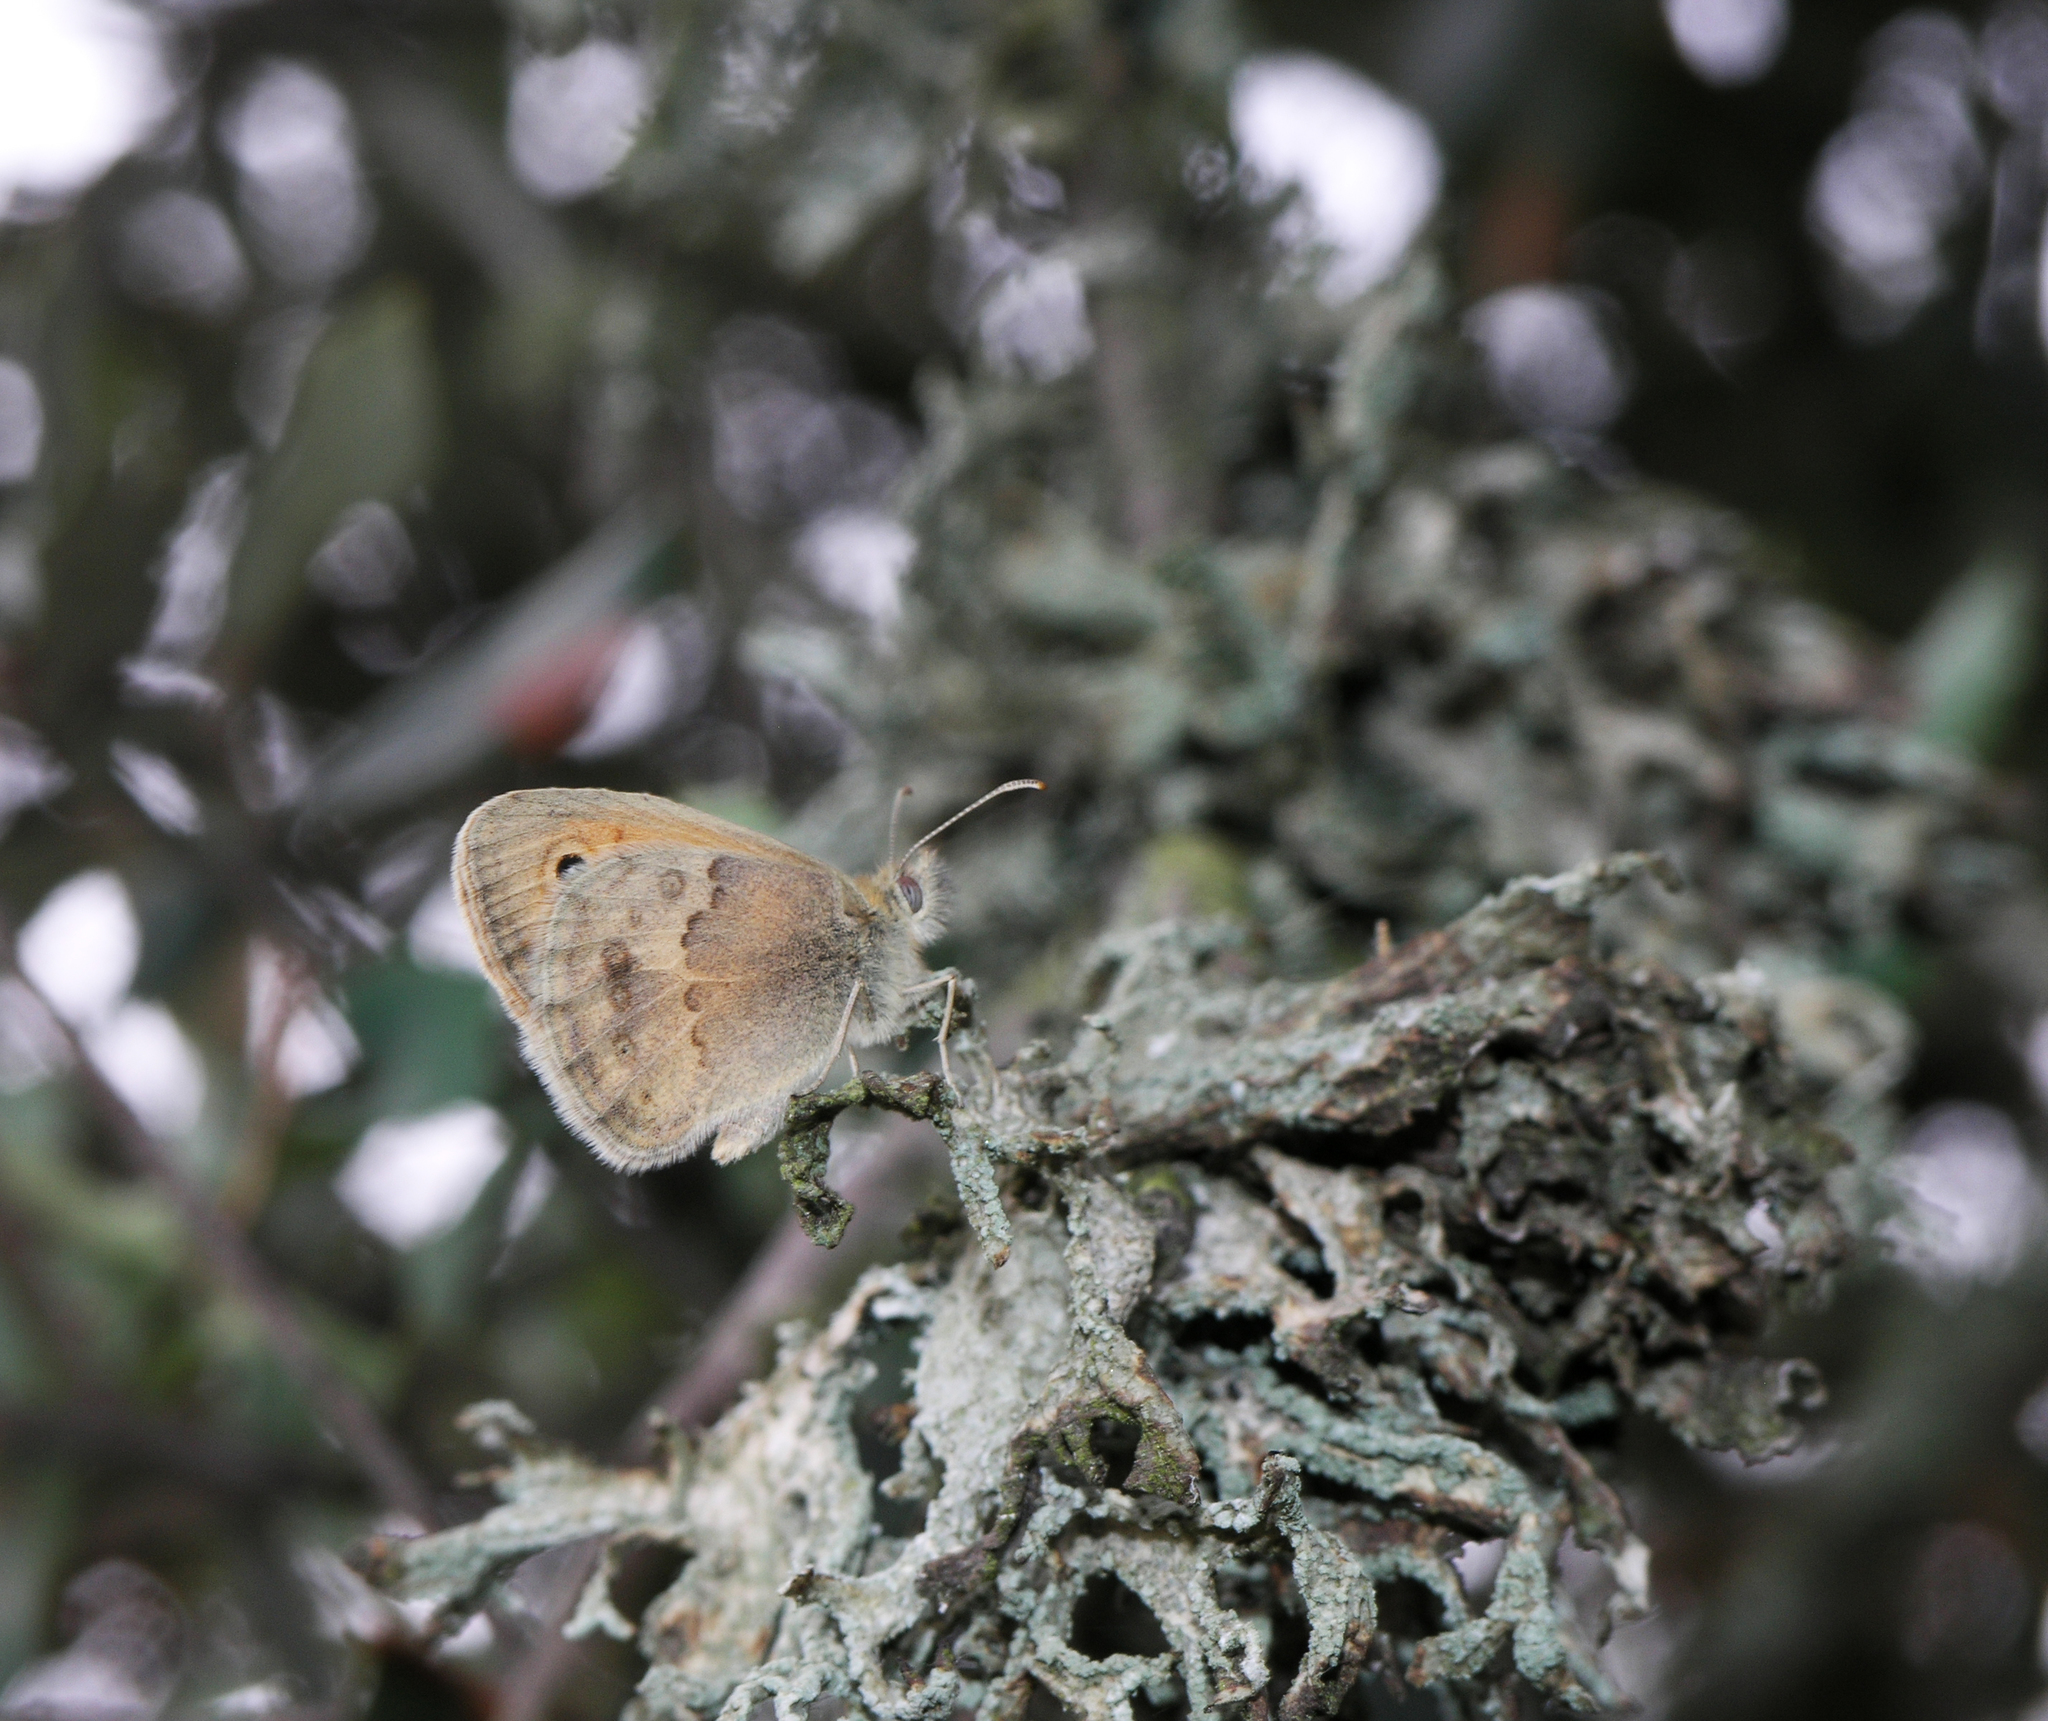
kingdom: Animalia
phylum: Arthropoda
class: Insecta
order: Lepidoptera
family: Nymphalidae
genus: Coenonympha
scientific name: Coenonympha pamphilus
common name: Small heath
